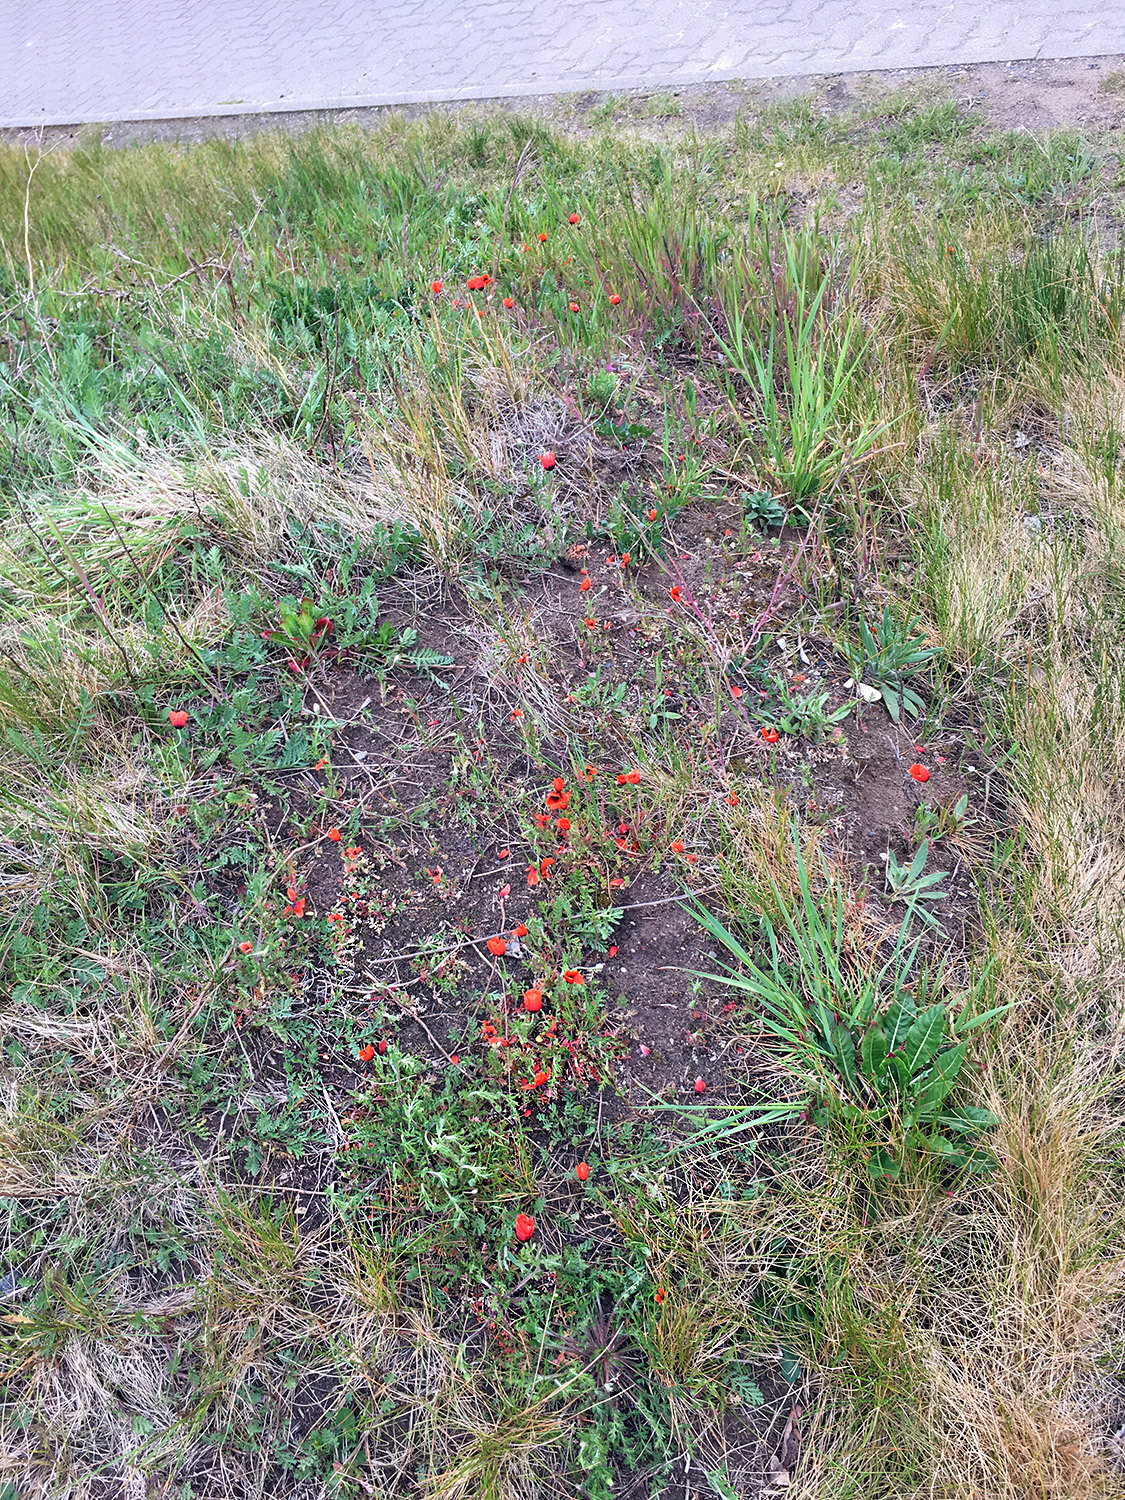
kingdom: Plantae
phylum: Tracheophyta
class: Magnoliopsida
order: Ranunculales
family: Papaveraceae
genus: Roemeria
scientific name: Roemeria argemone
